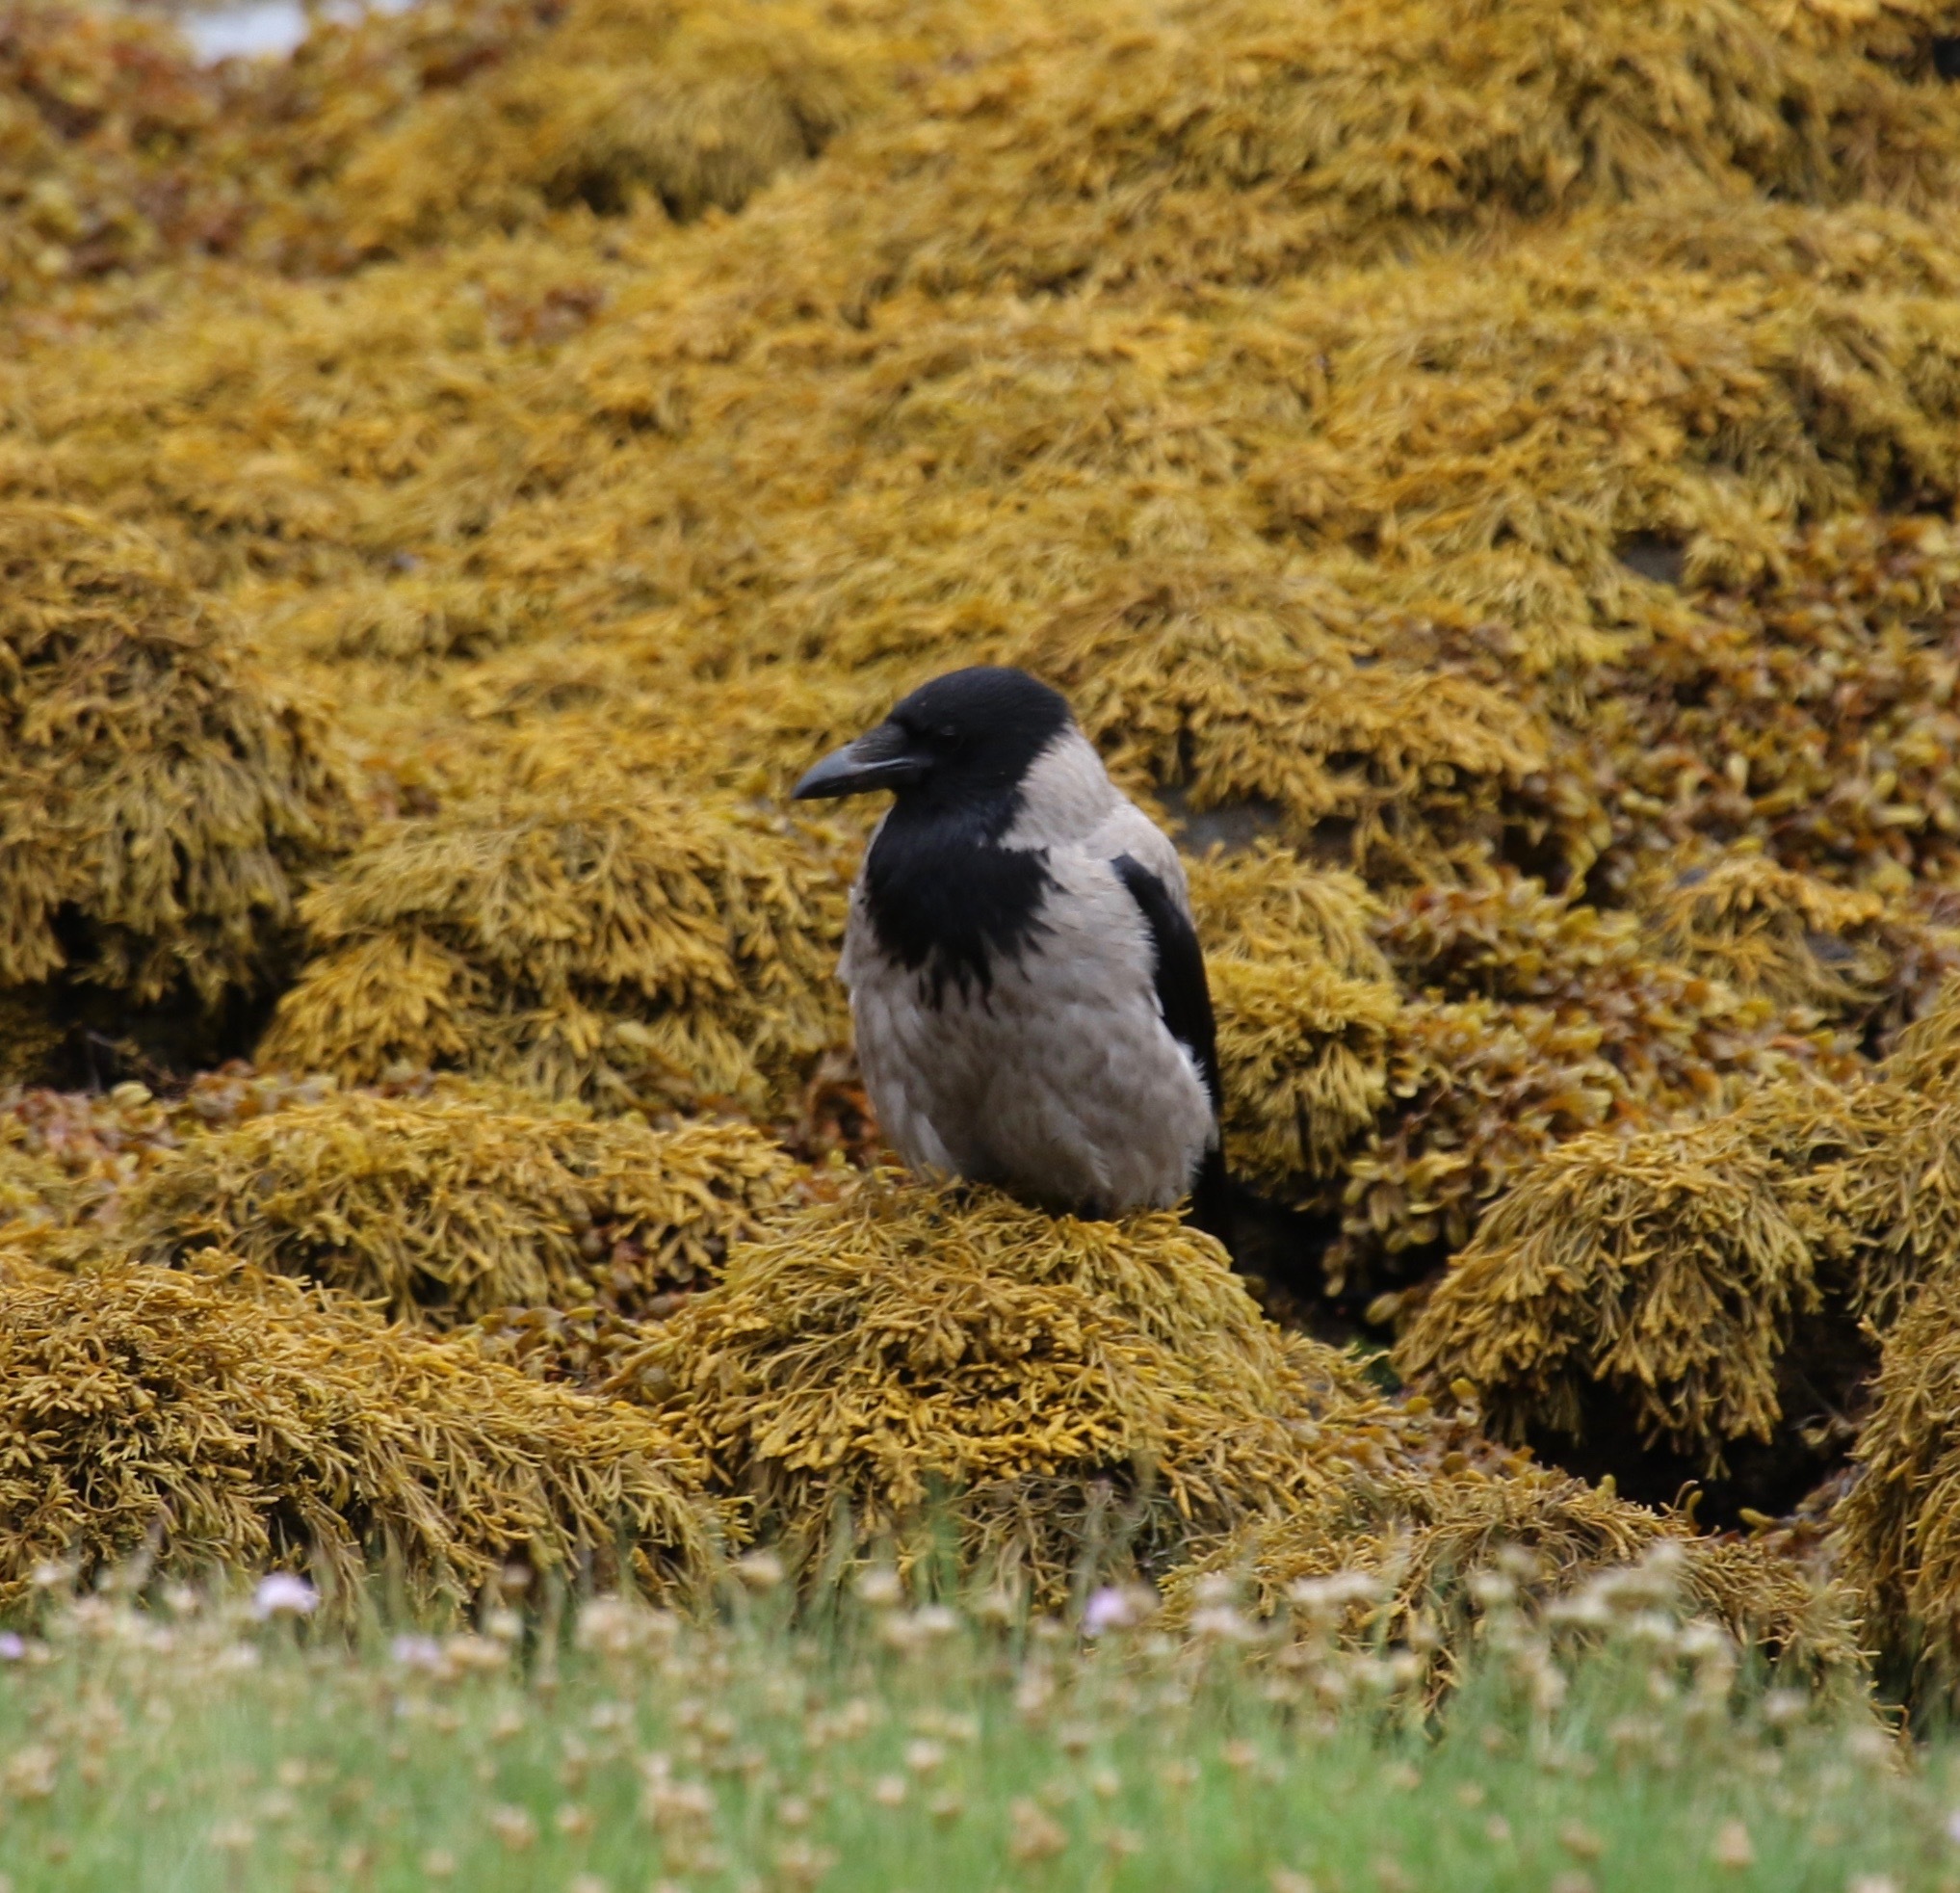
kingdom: Animalia
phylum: Chordata
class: Aves
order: Passeriformes
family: Corvidae
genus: Corvus
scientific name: Corvus cornix
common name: Hooded crow
